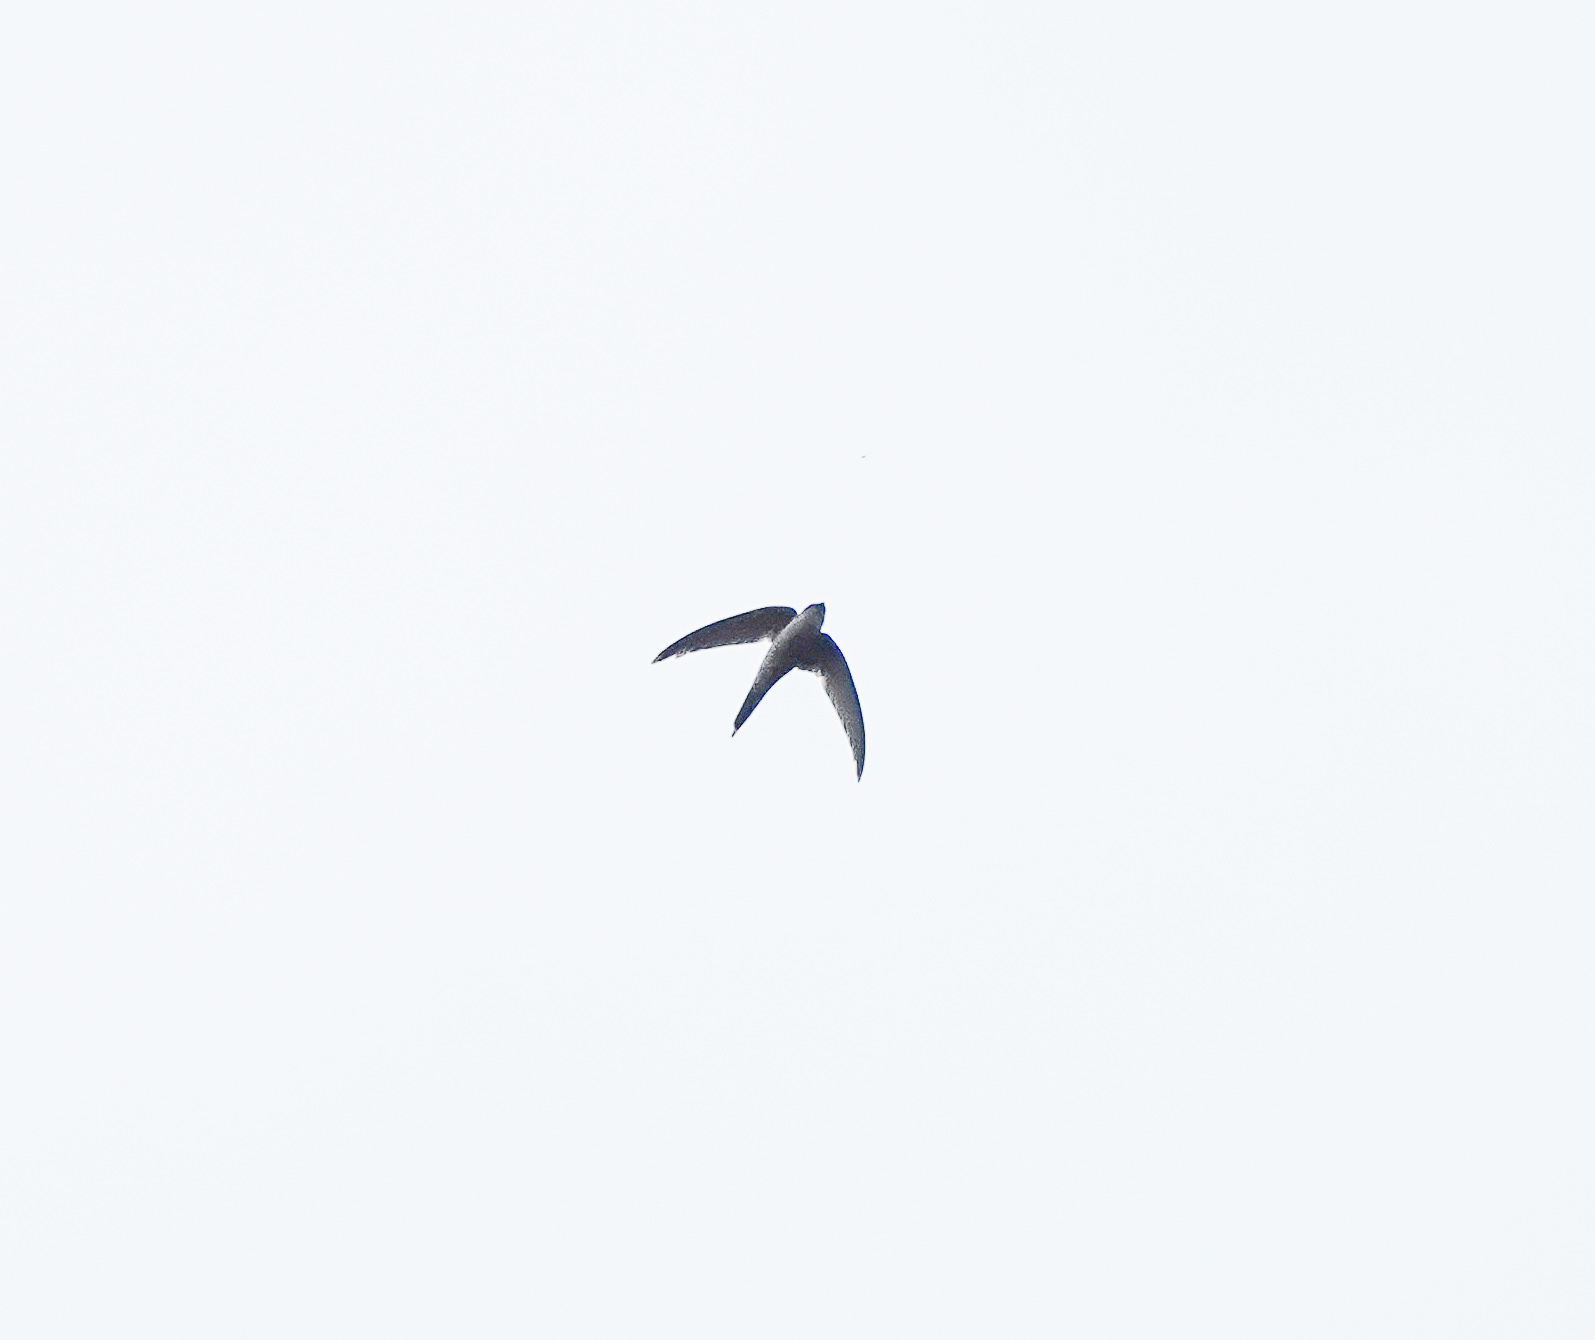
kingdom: Animalia
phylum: Chordata
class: Aves
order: Apodiformes
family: Apodidae
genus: Cypsiurus
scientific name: Cypsiurus balasiensis
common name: Asian palm swift
